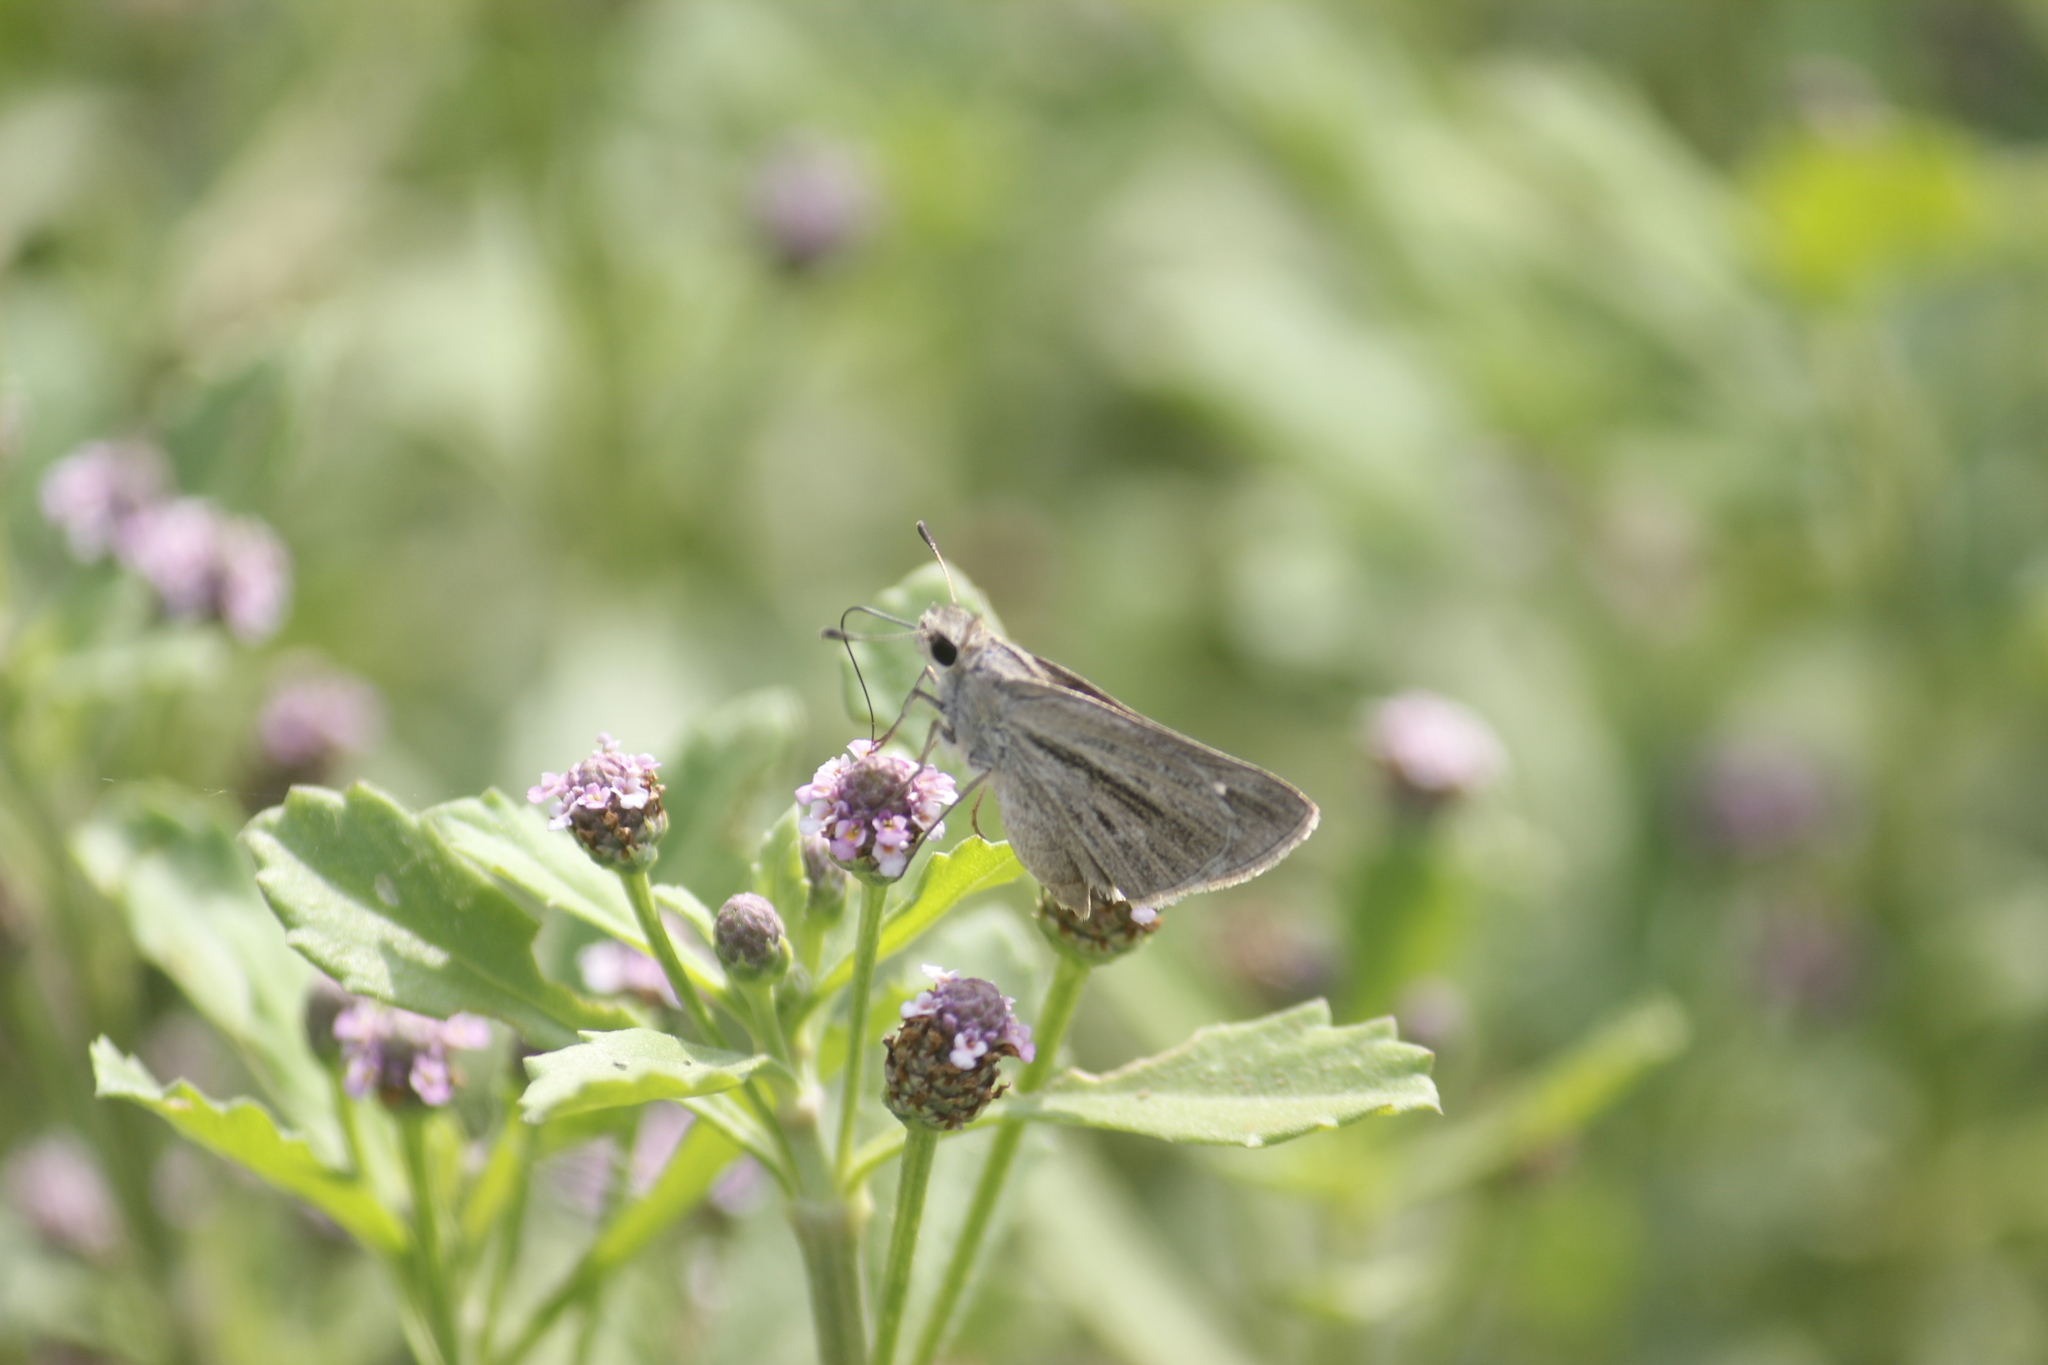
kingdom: Animalia
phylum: Arthropoda
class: Insecta
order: Lepidoptera
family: Hesperiidae
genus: Lerodea
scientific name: Lerodea gracia
